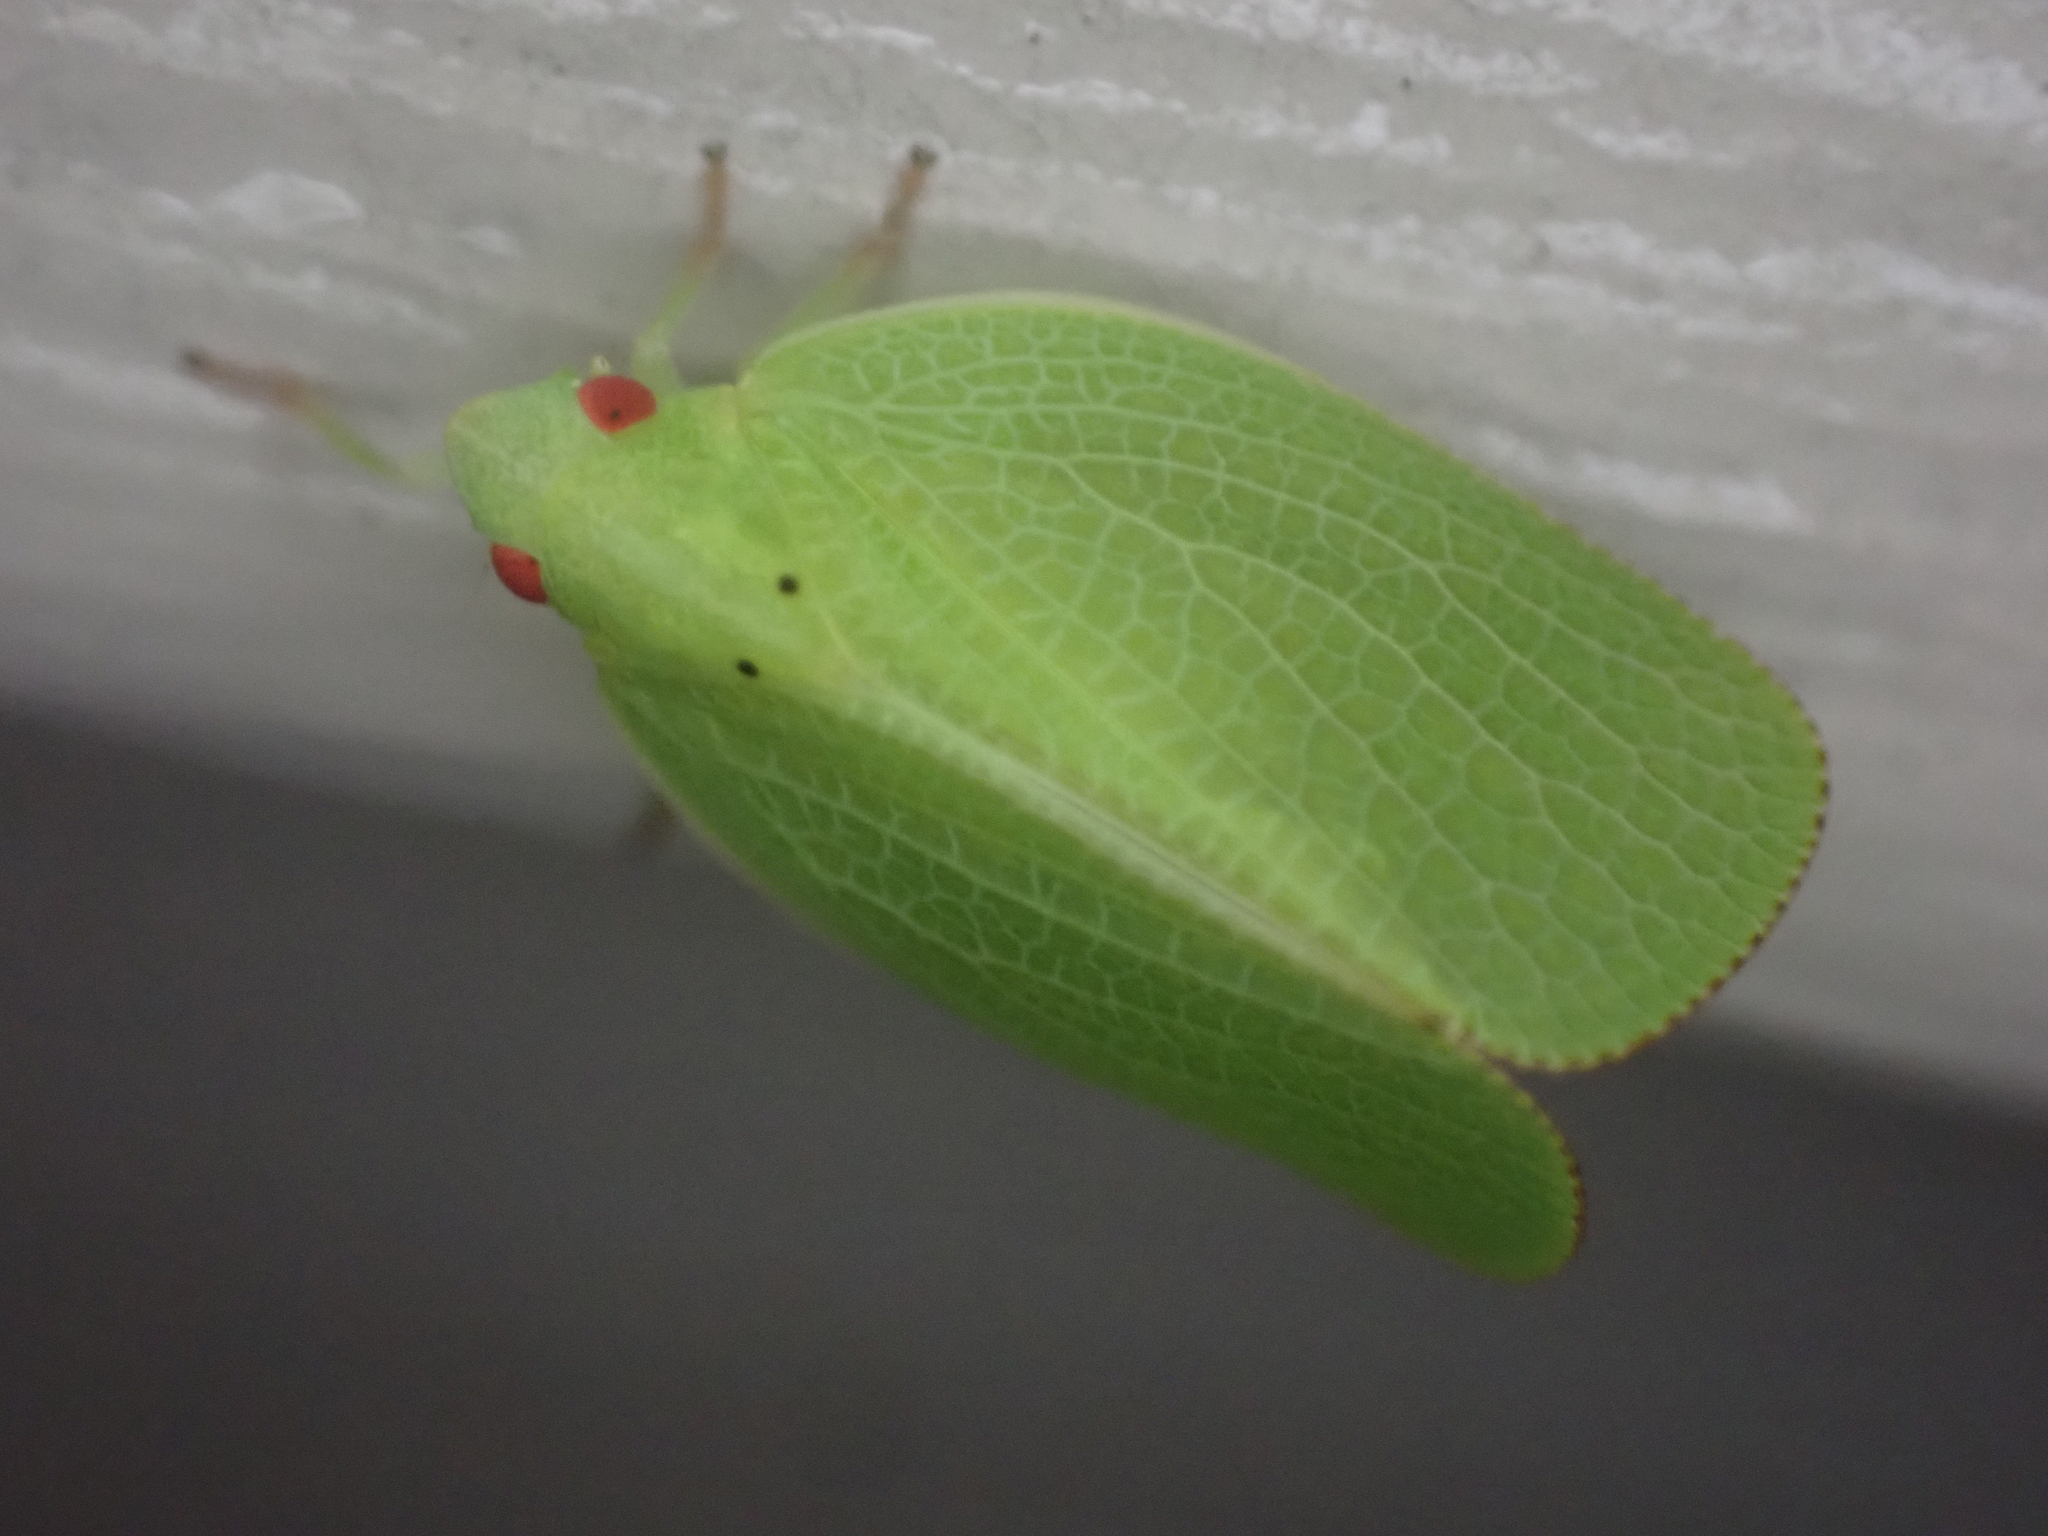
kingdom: Animalia
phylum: Arthropoda
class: Insecta
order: Hemiptera
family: Acanaloniidae
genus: Acanalonia
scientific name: Acanalonia conica
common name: Green cone-headed planthopper
